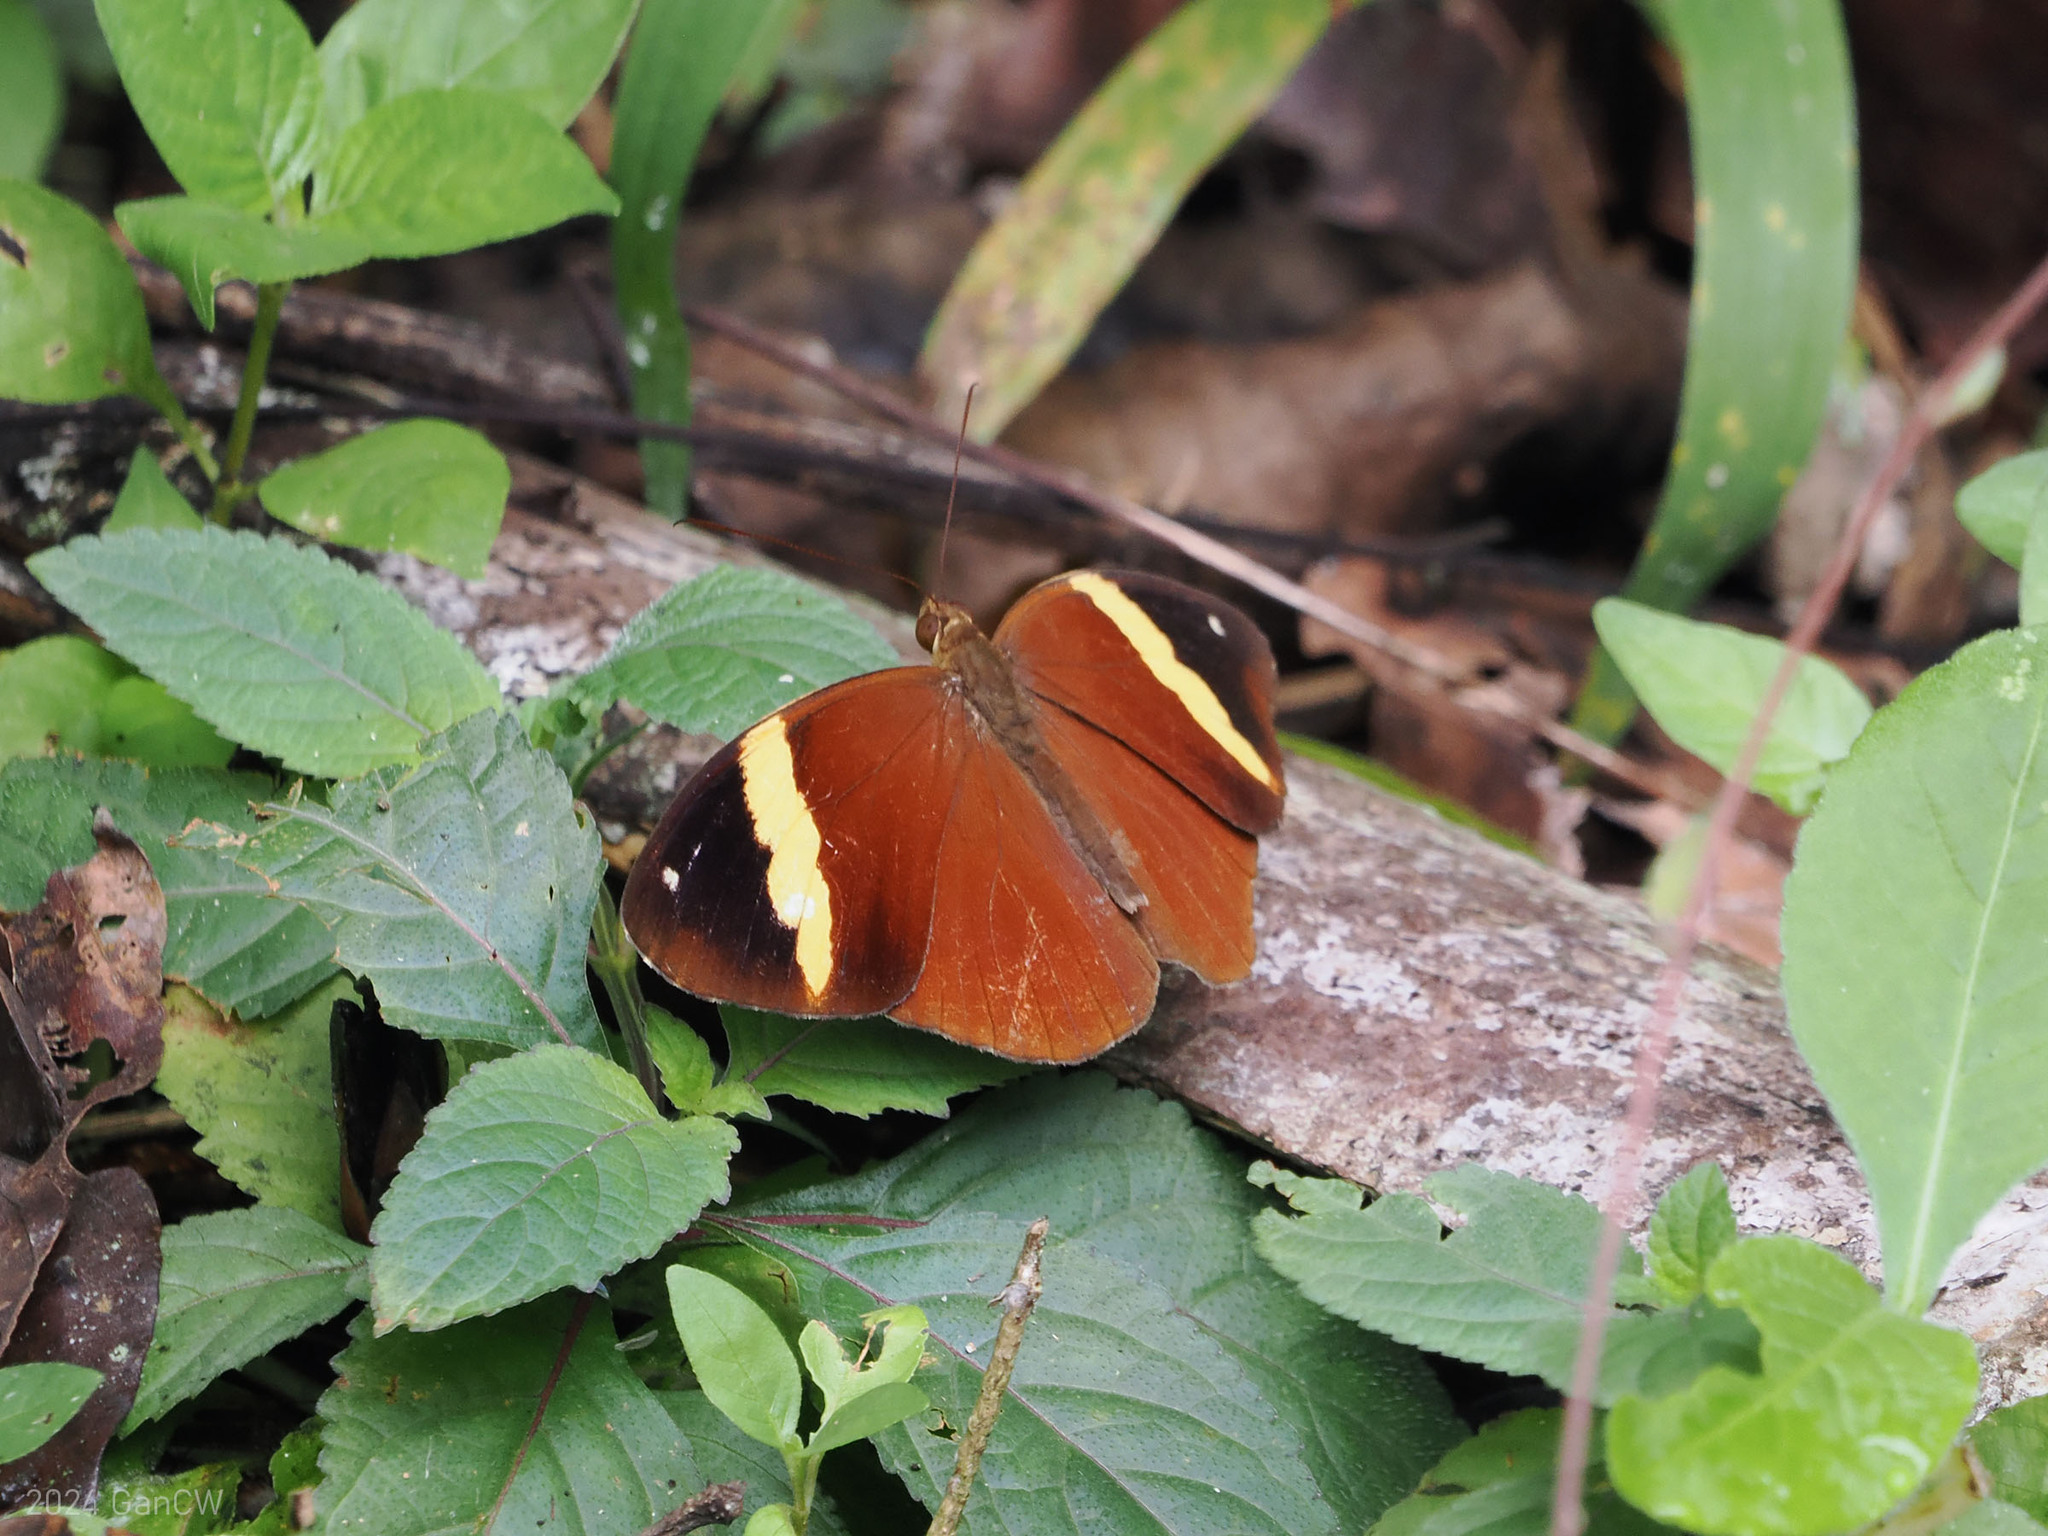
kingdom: Animalia
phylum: Arthropoda
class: Insecta
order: Lepidoptera
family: Nymphalidae
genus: Xanthotaenia
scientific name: Xanthotaenia busiris
